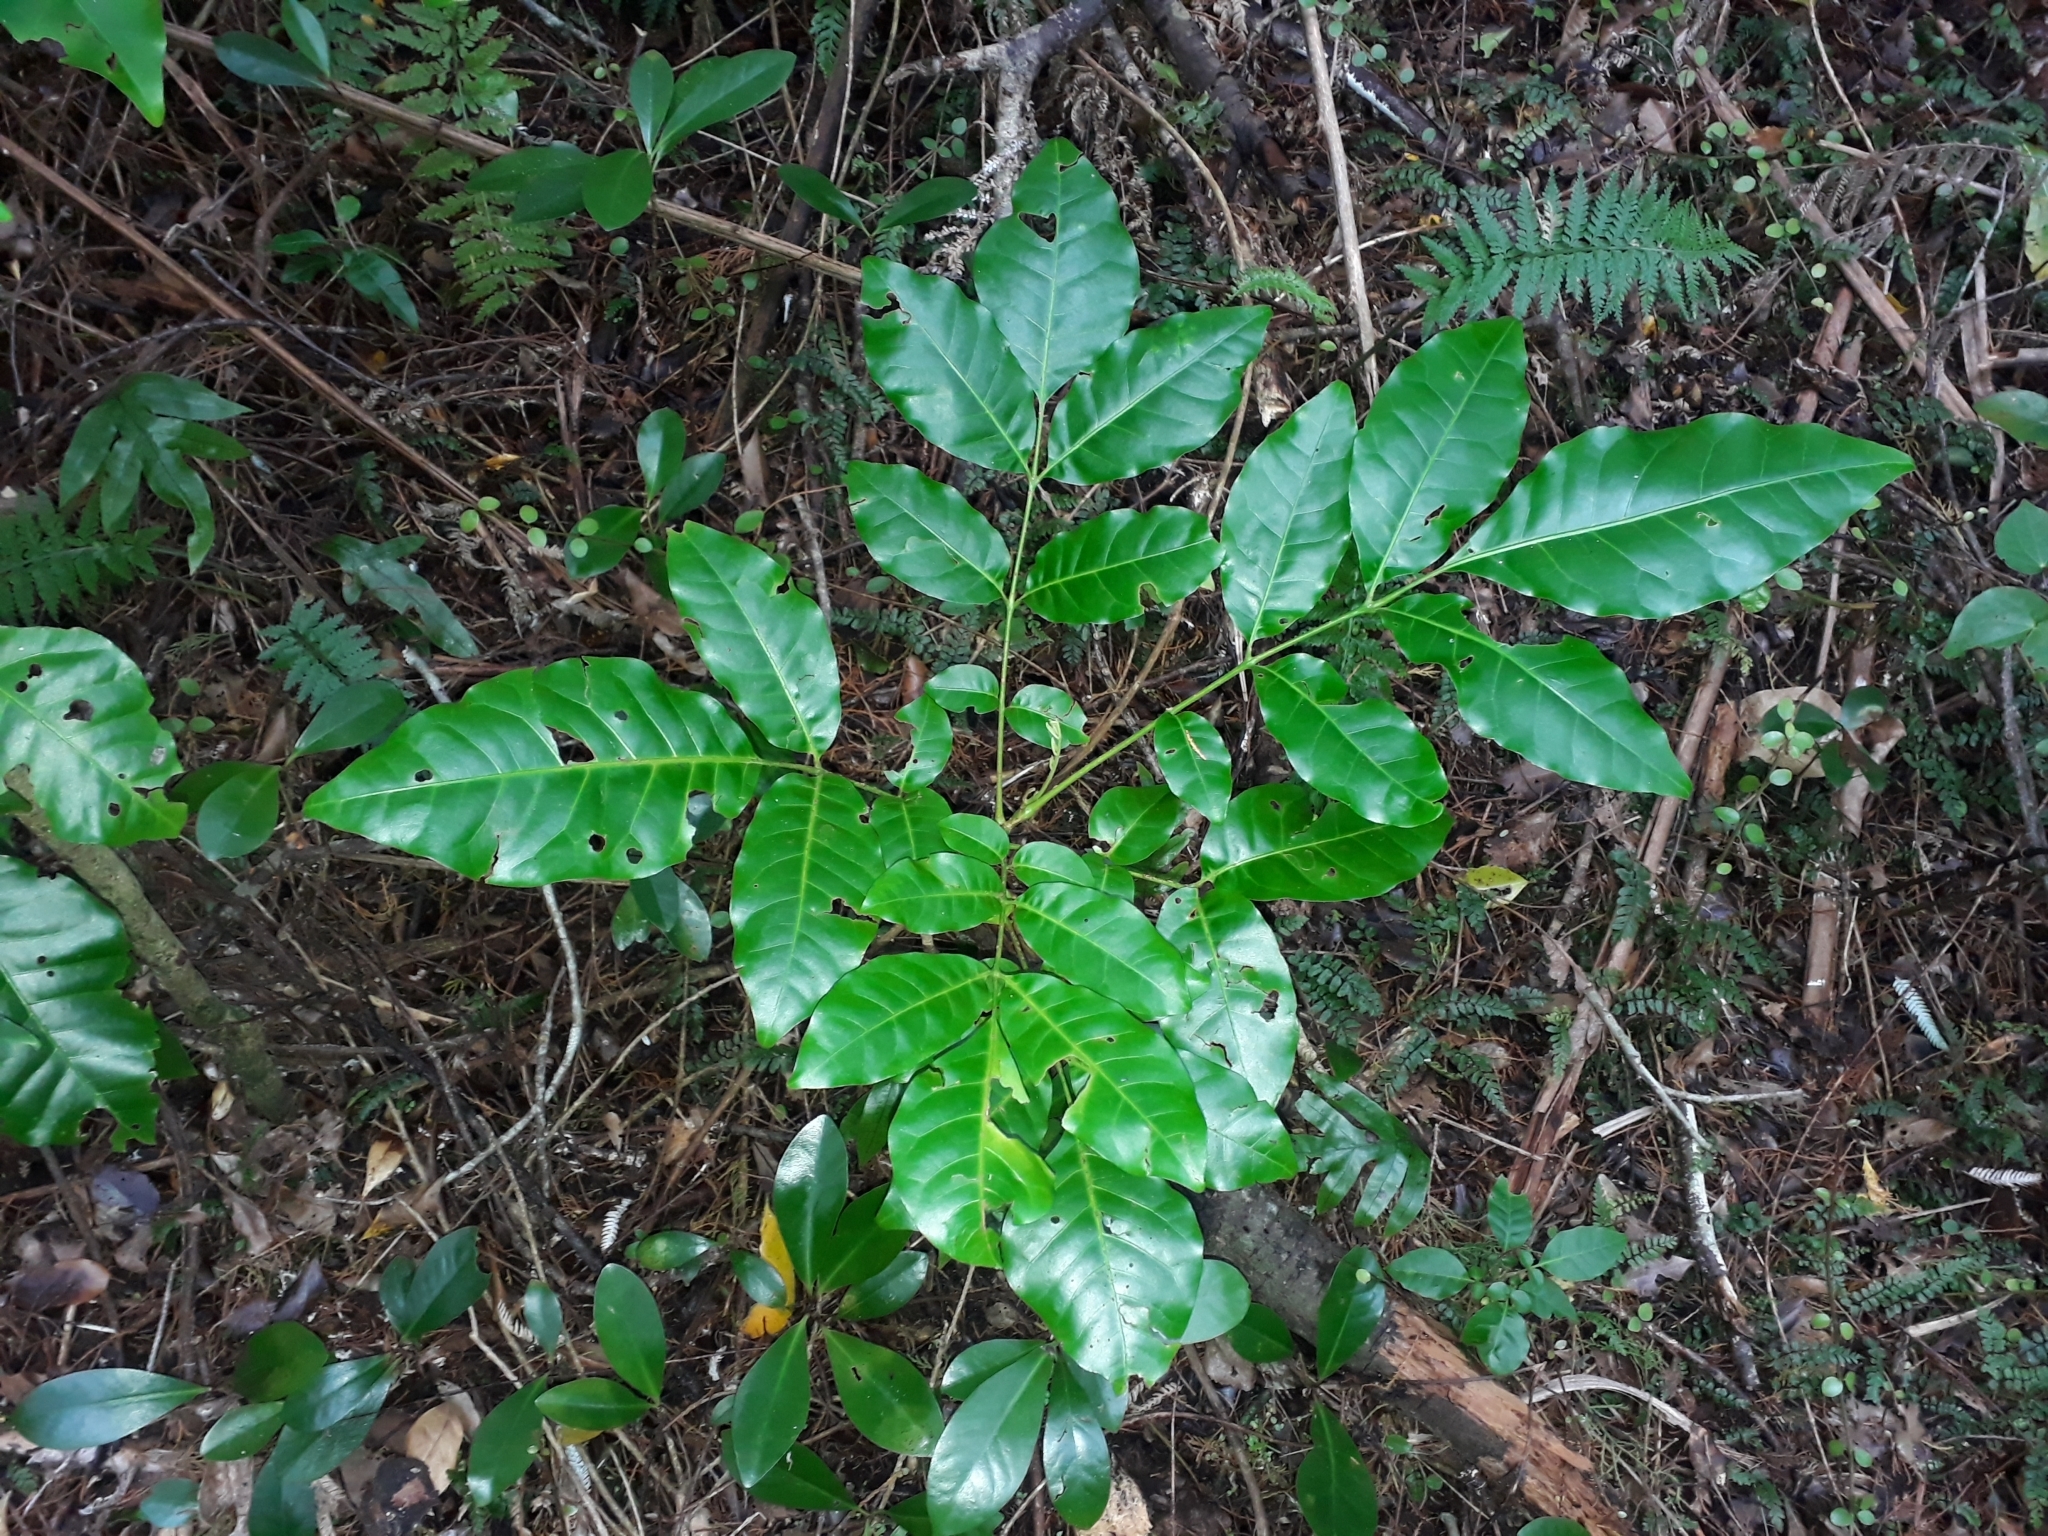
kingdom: Plantae
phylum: Tracheophyta
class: Magnoliopsida
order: Sapindales
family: Meliaceae
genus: Didymocheton
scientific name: Didymocheton spectabilis
